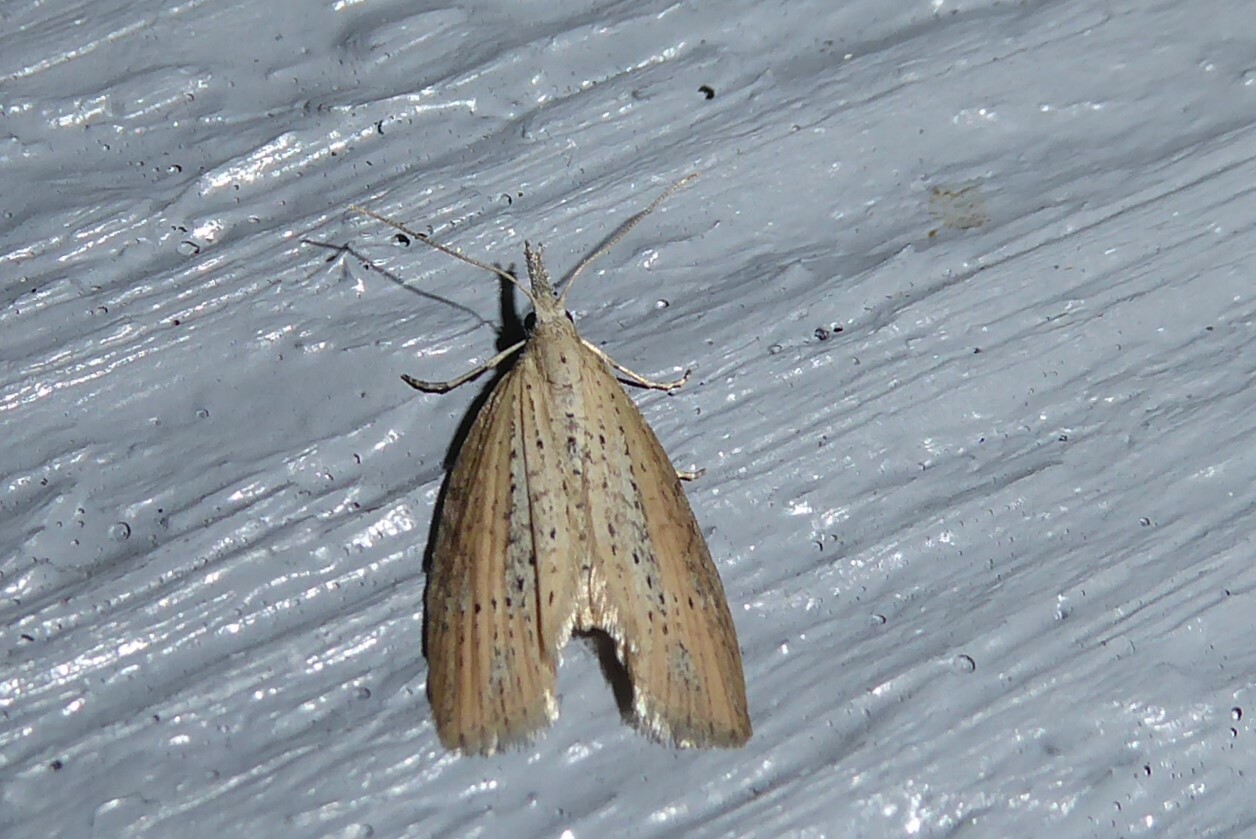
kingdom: Animalia
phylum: Arthropoda
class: Insecta
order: Lepidoptera
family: Geometridae
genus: Microdes
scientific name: Microdes epicryptis
